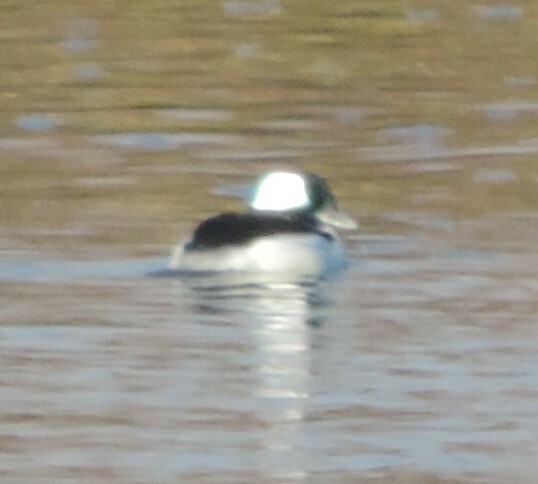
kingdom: Animalia
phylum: Chordata
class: Aves
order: Anseriformes
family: Anatidae
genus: Bucephala
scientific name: Bucephala albeola
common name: Bufflehead
